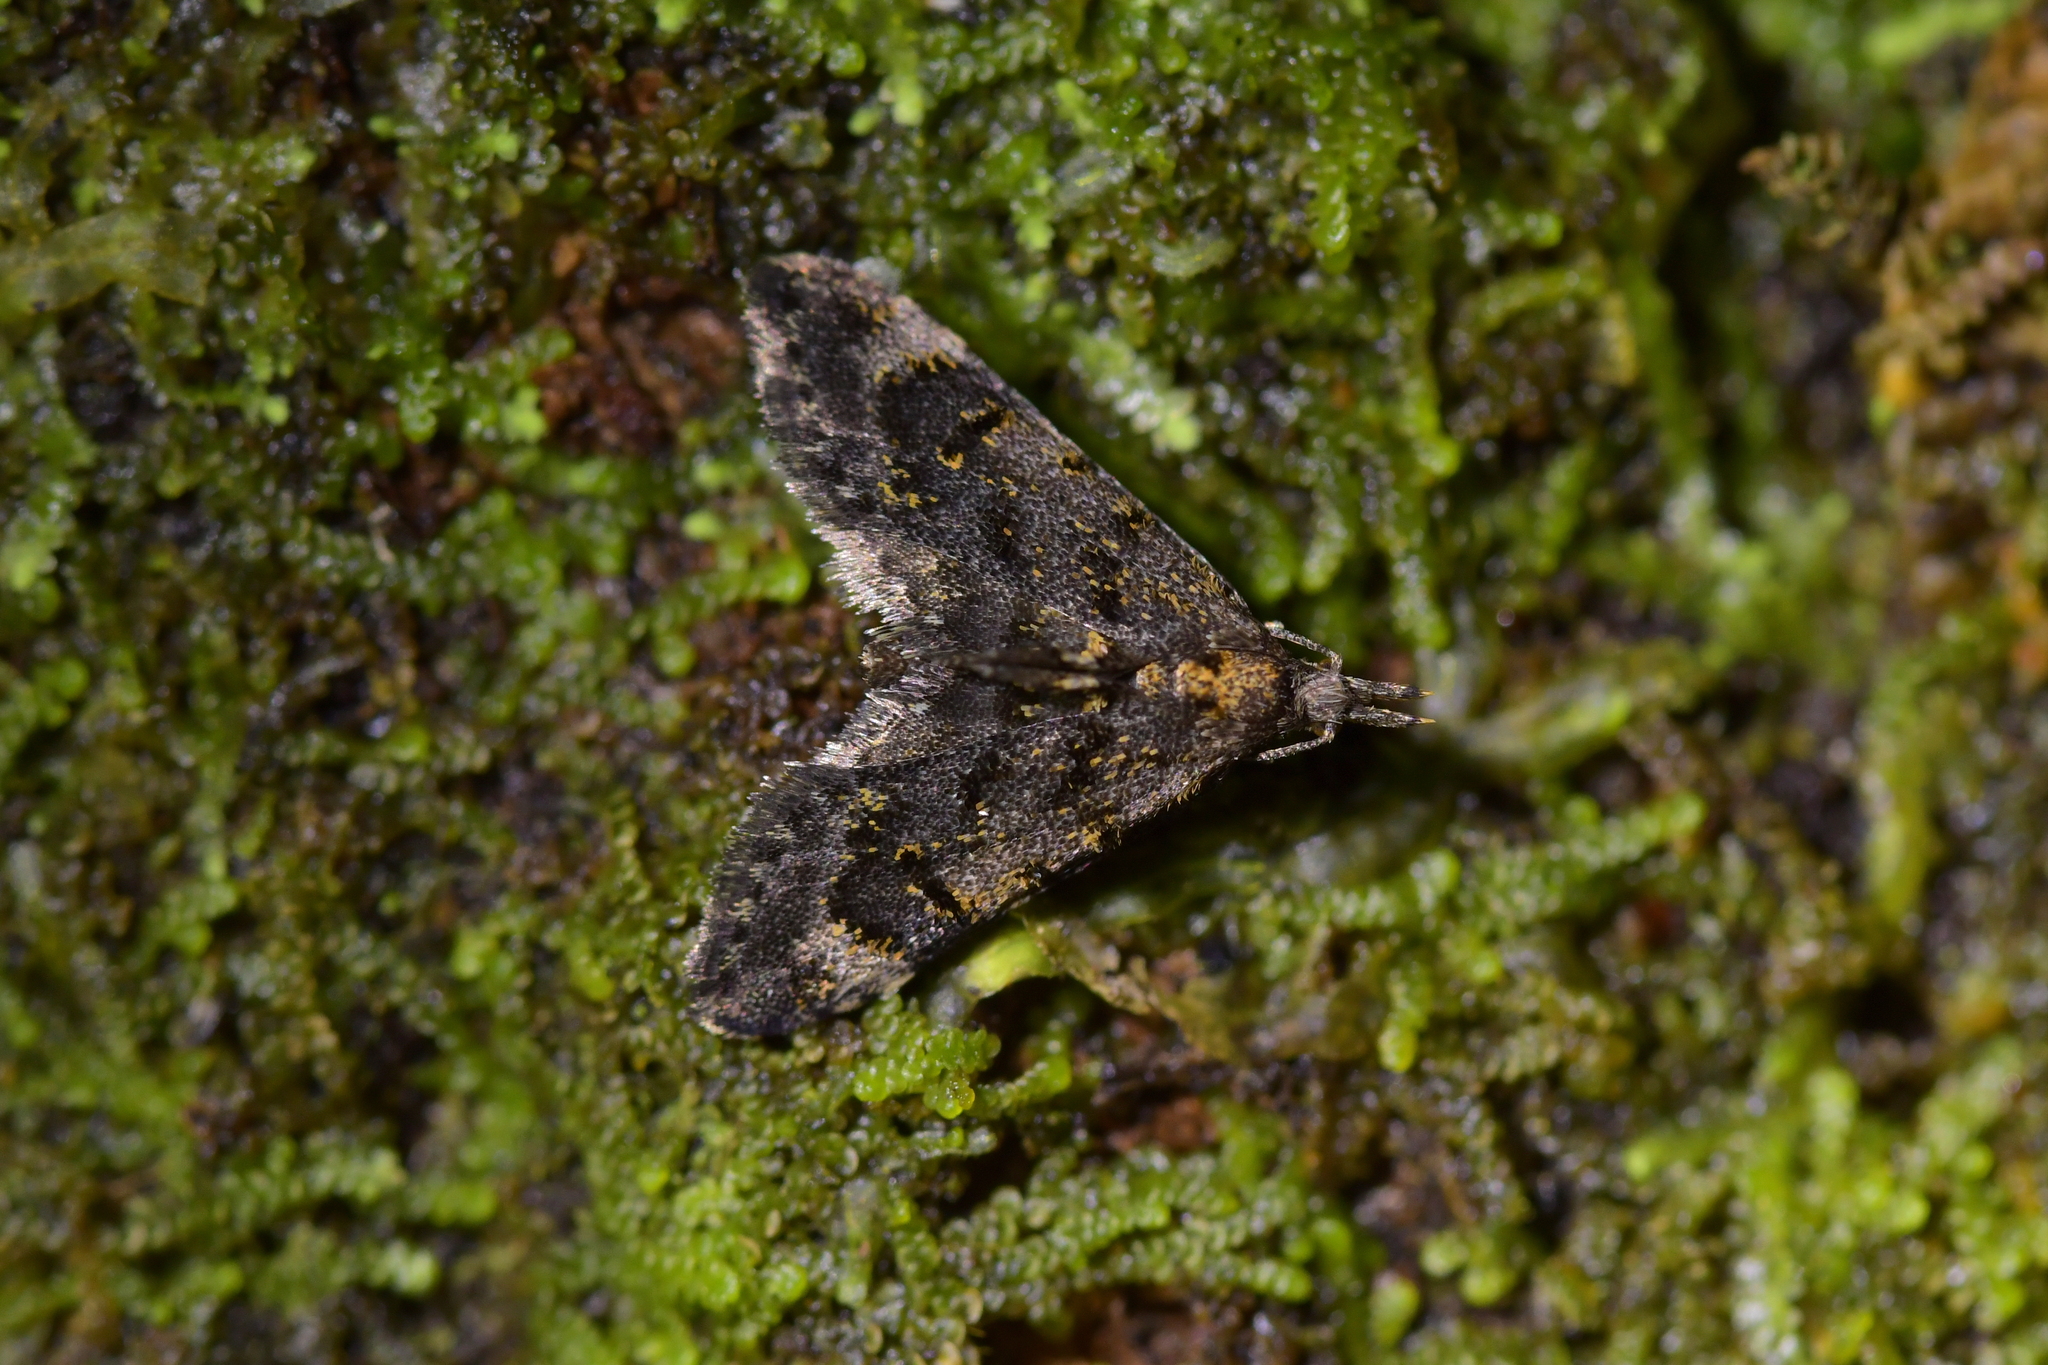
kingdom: Animalia
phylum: Arthropoda
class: Insecta
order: Lepidoptera
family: Copromorphidae
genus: Isonomeutis
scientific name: Isonomeutis amauropa
